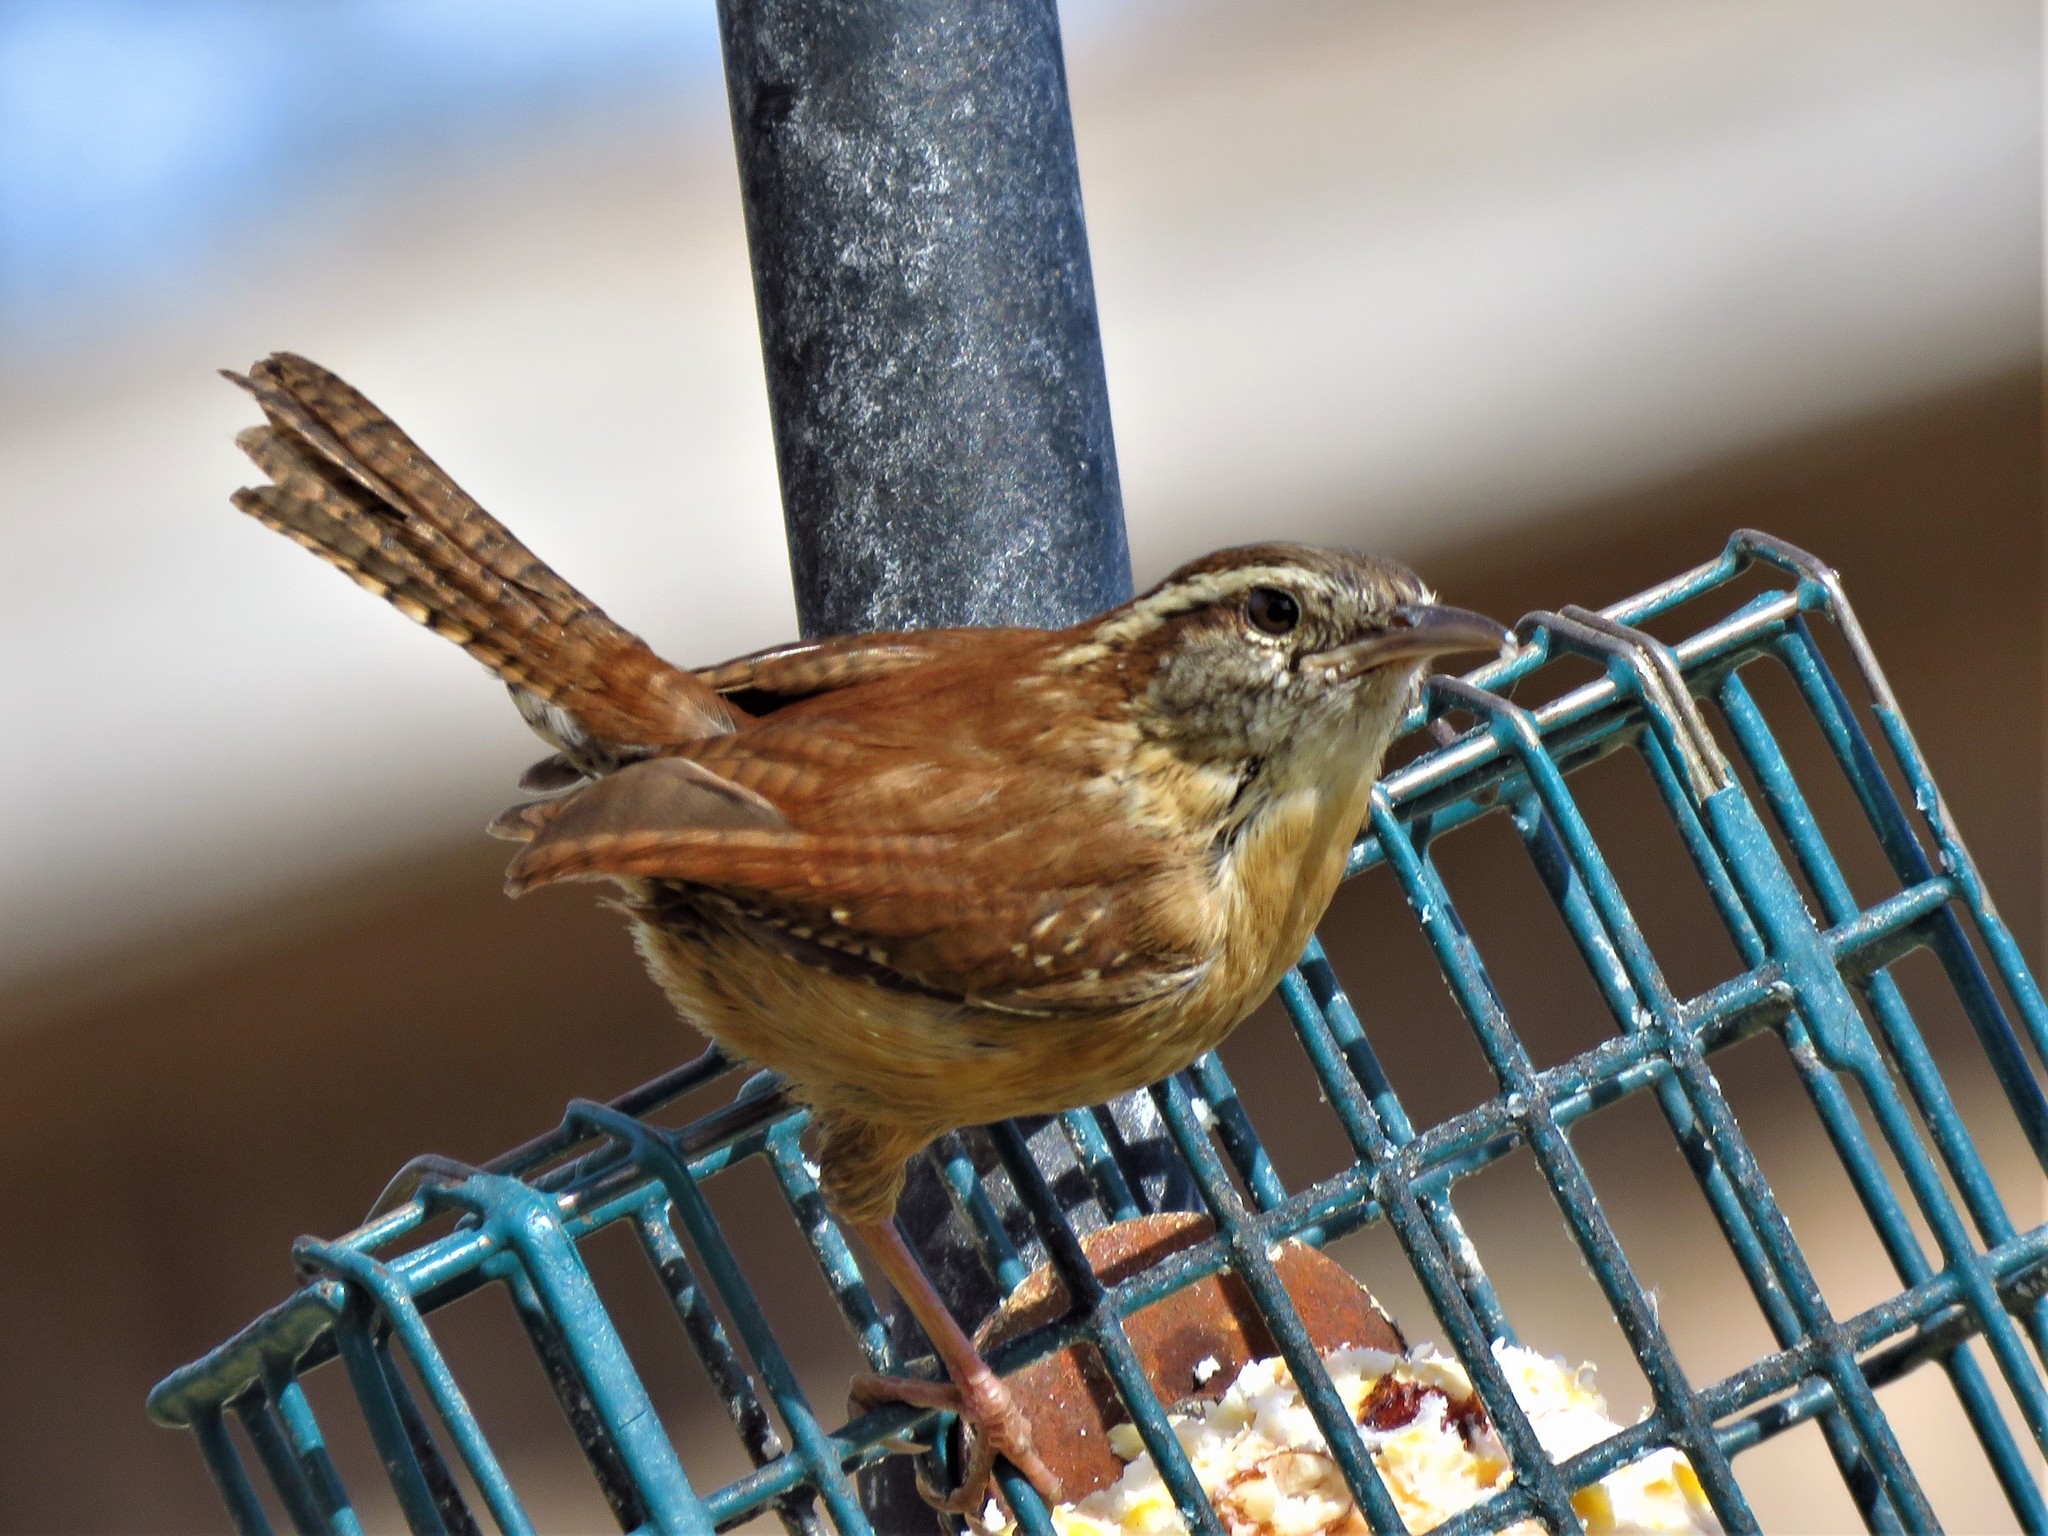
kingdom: Animalia
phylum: Chordata
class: Aves
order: Passeriformes
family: Troglodytidae
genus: Thryothorus
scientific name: Thryothorus ludovicianus
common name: Carolina wren
